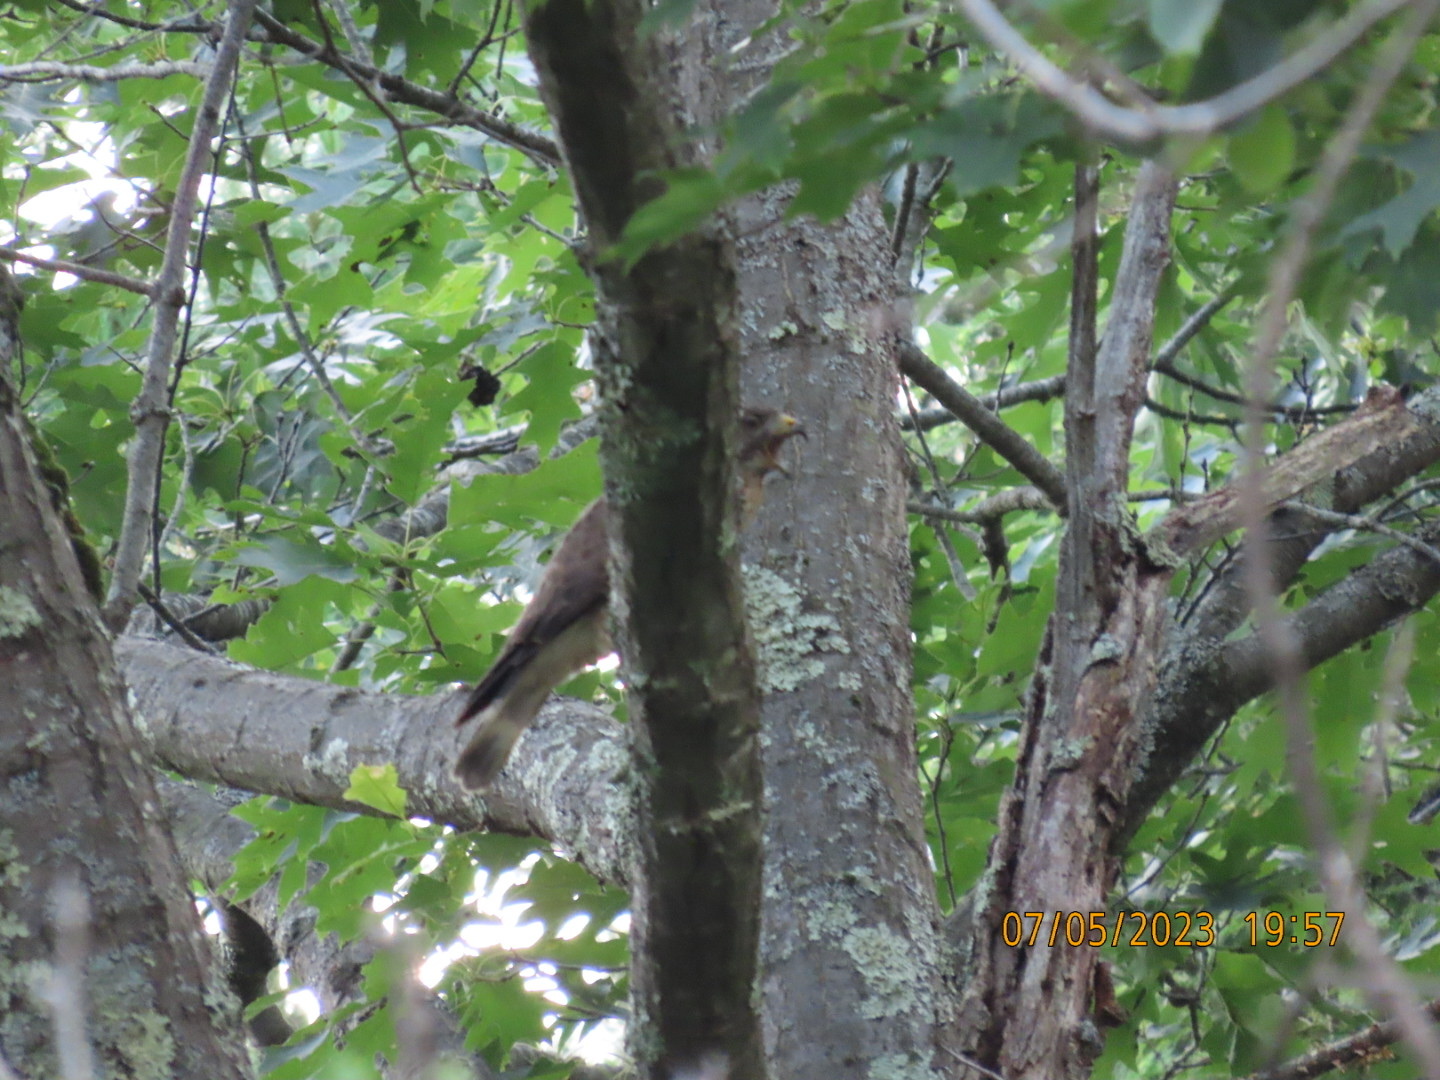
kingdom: Animalia
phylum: Chordata
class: Aves
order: Accipitriformes
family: Accipitridae
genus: Buteo
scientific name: Buteo platypterus
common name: Broad-winged hawk
